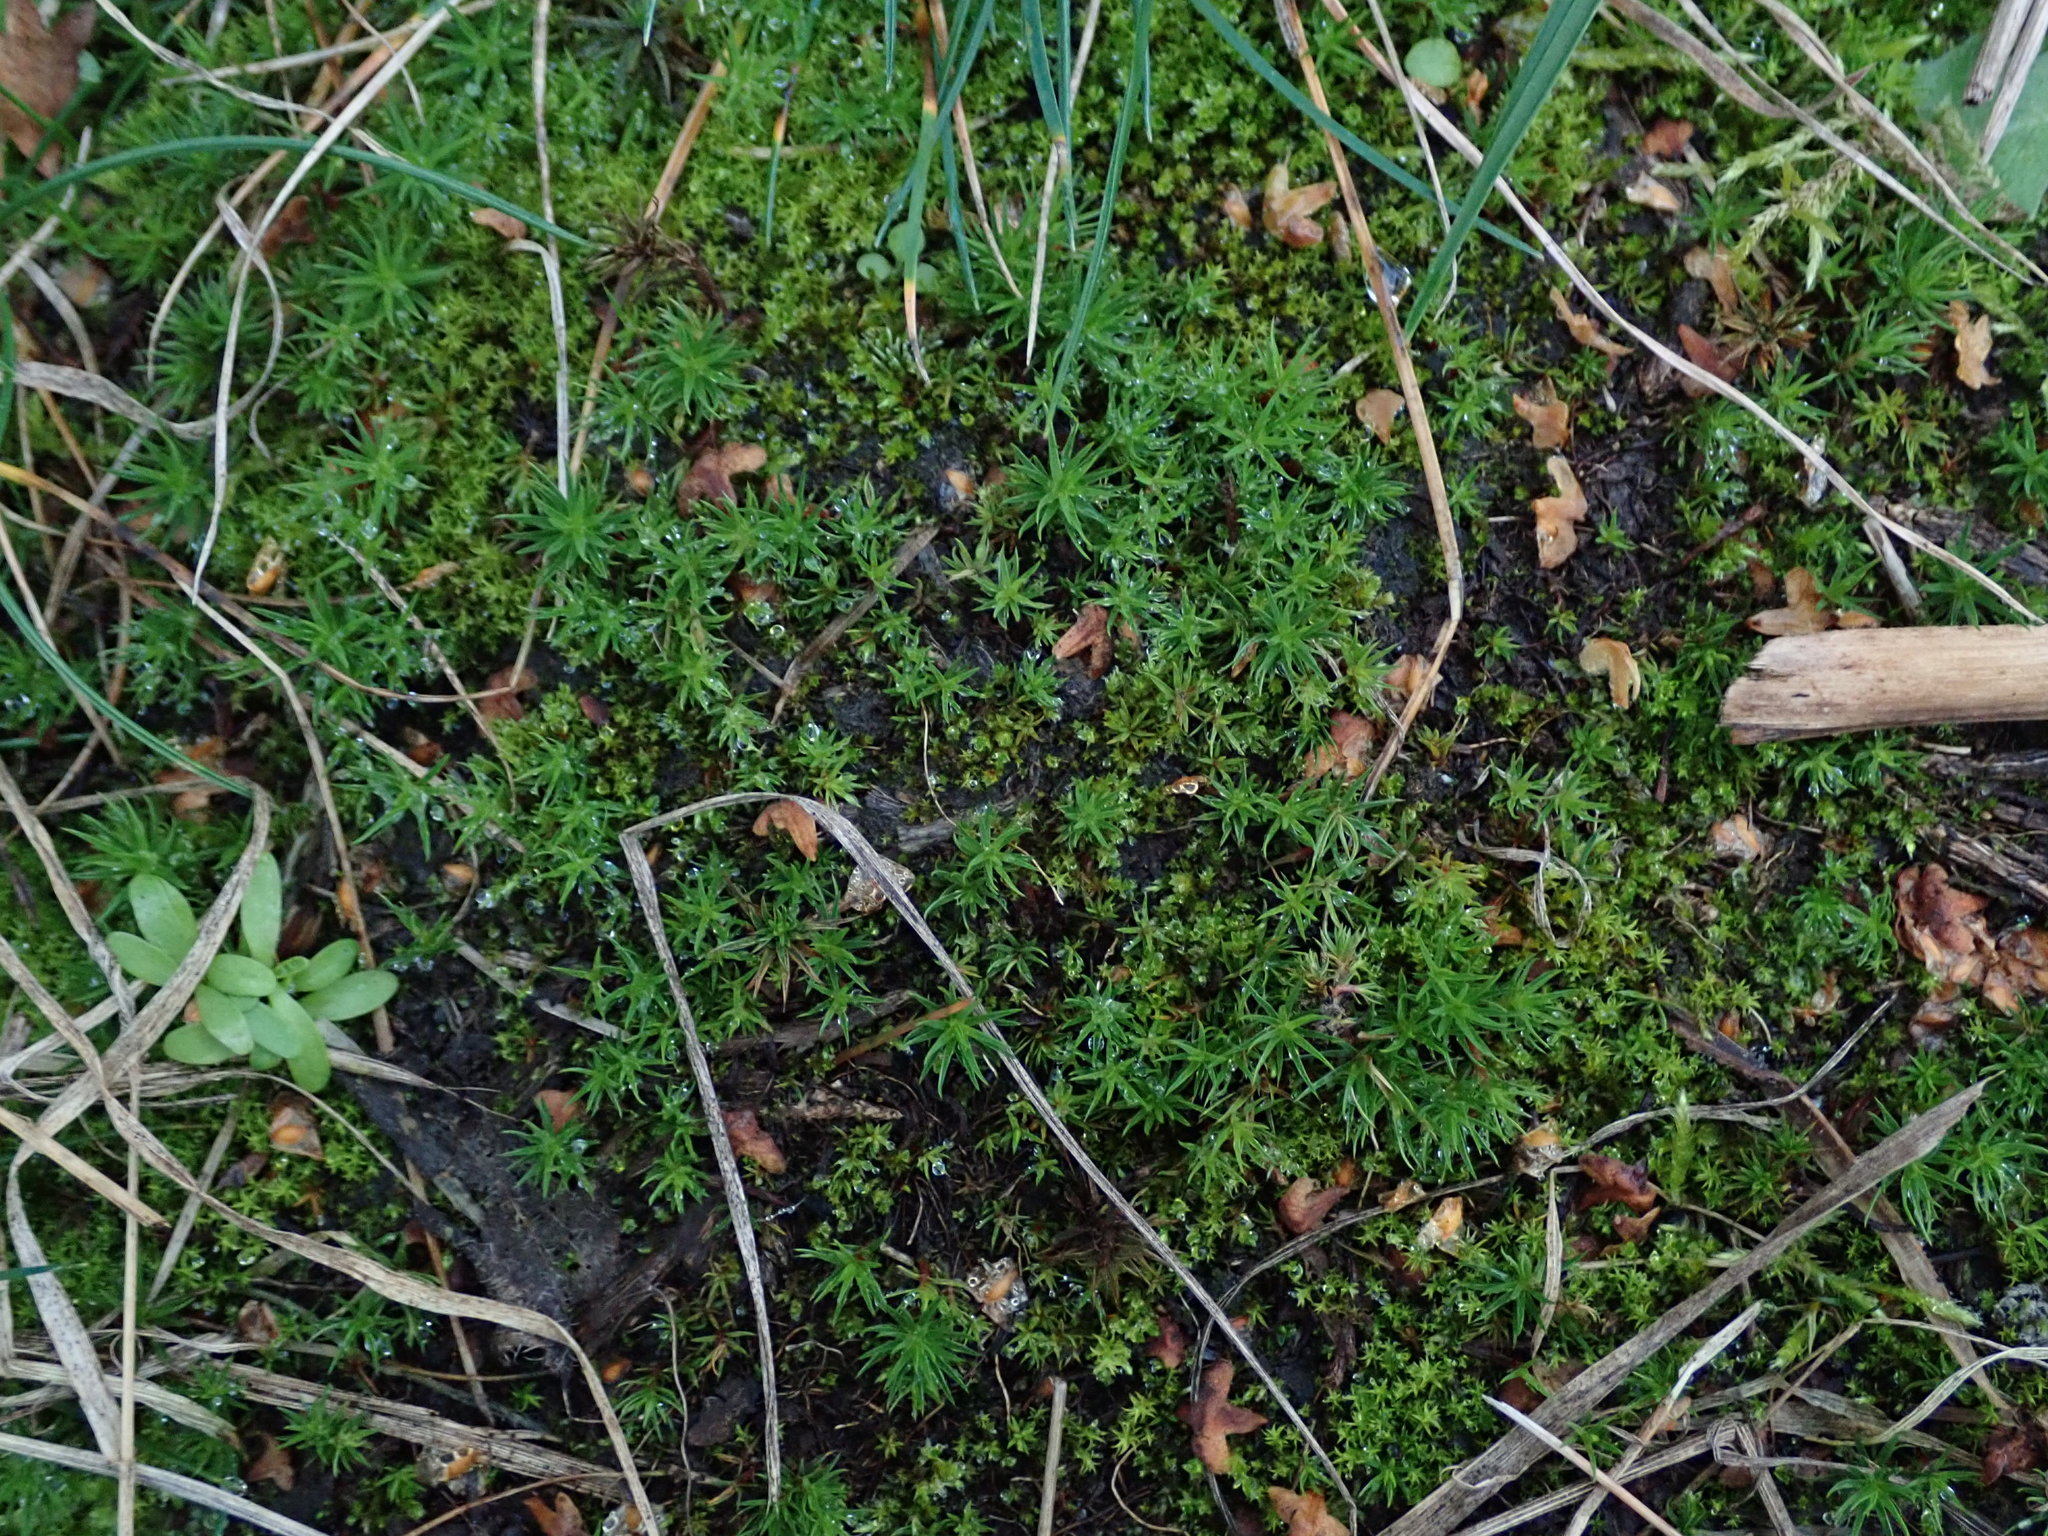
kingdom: Plantae
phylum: Bryophyta
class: Polytrichopsida
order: Polytrichales
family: Polytrichaceae
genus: Polytrichum
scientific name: Polytrichum juniperinum
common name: Juniper haircap moss
